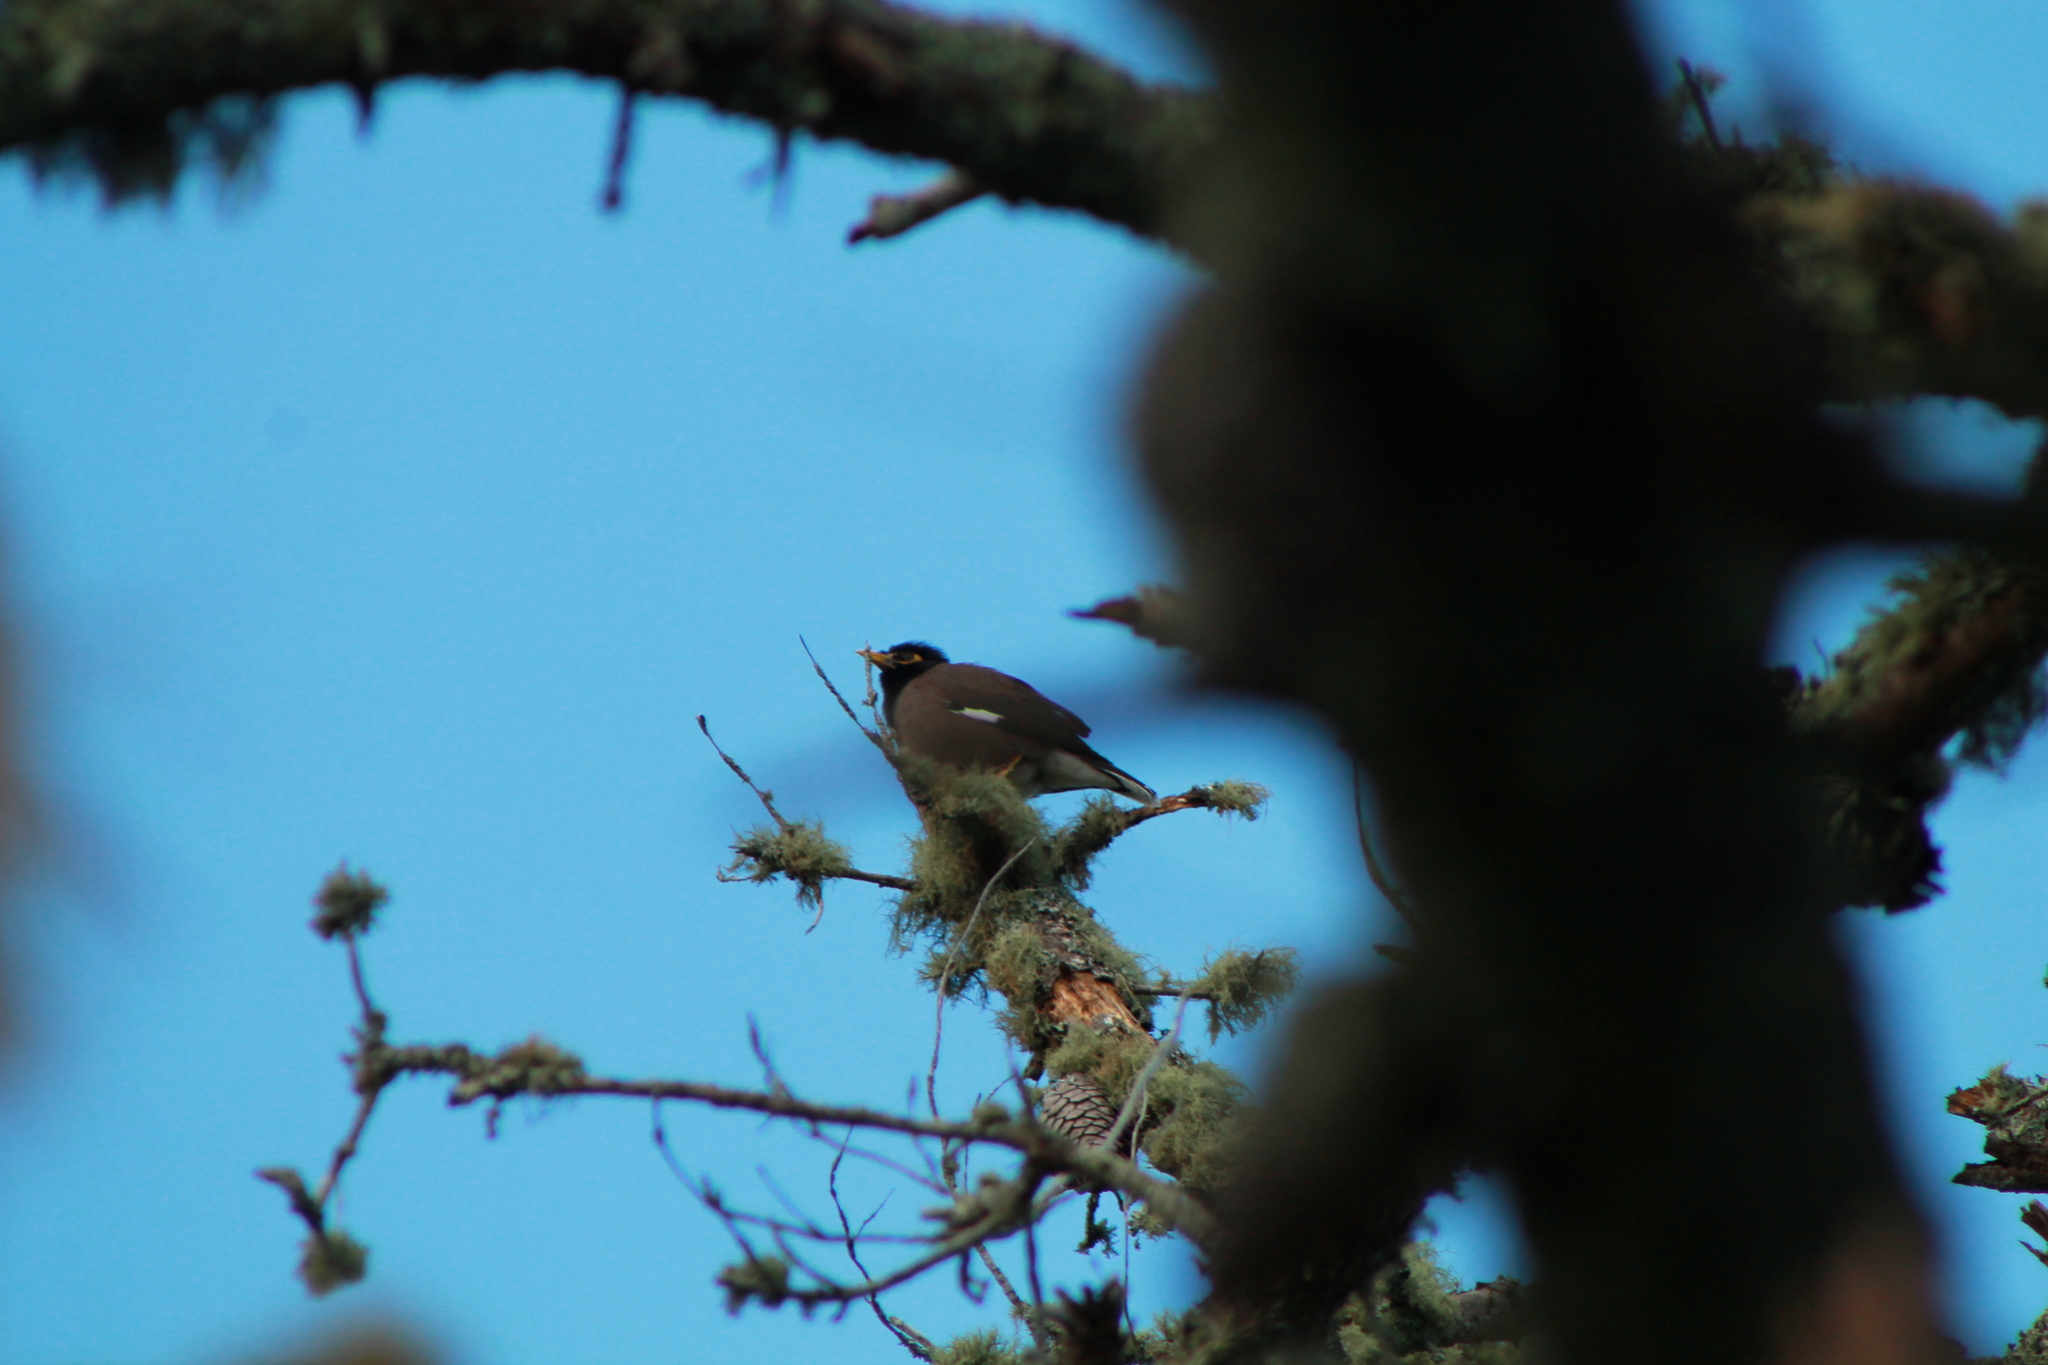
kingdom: Animalia
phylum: Chordata
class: Aves
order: Passeriformes
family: Sturnidae
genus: Acridotheres
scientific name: Acridotheres tristis
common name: Common myna
